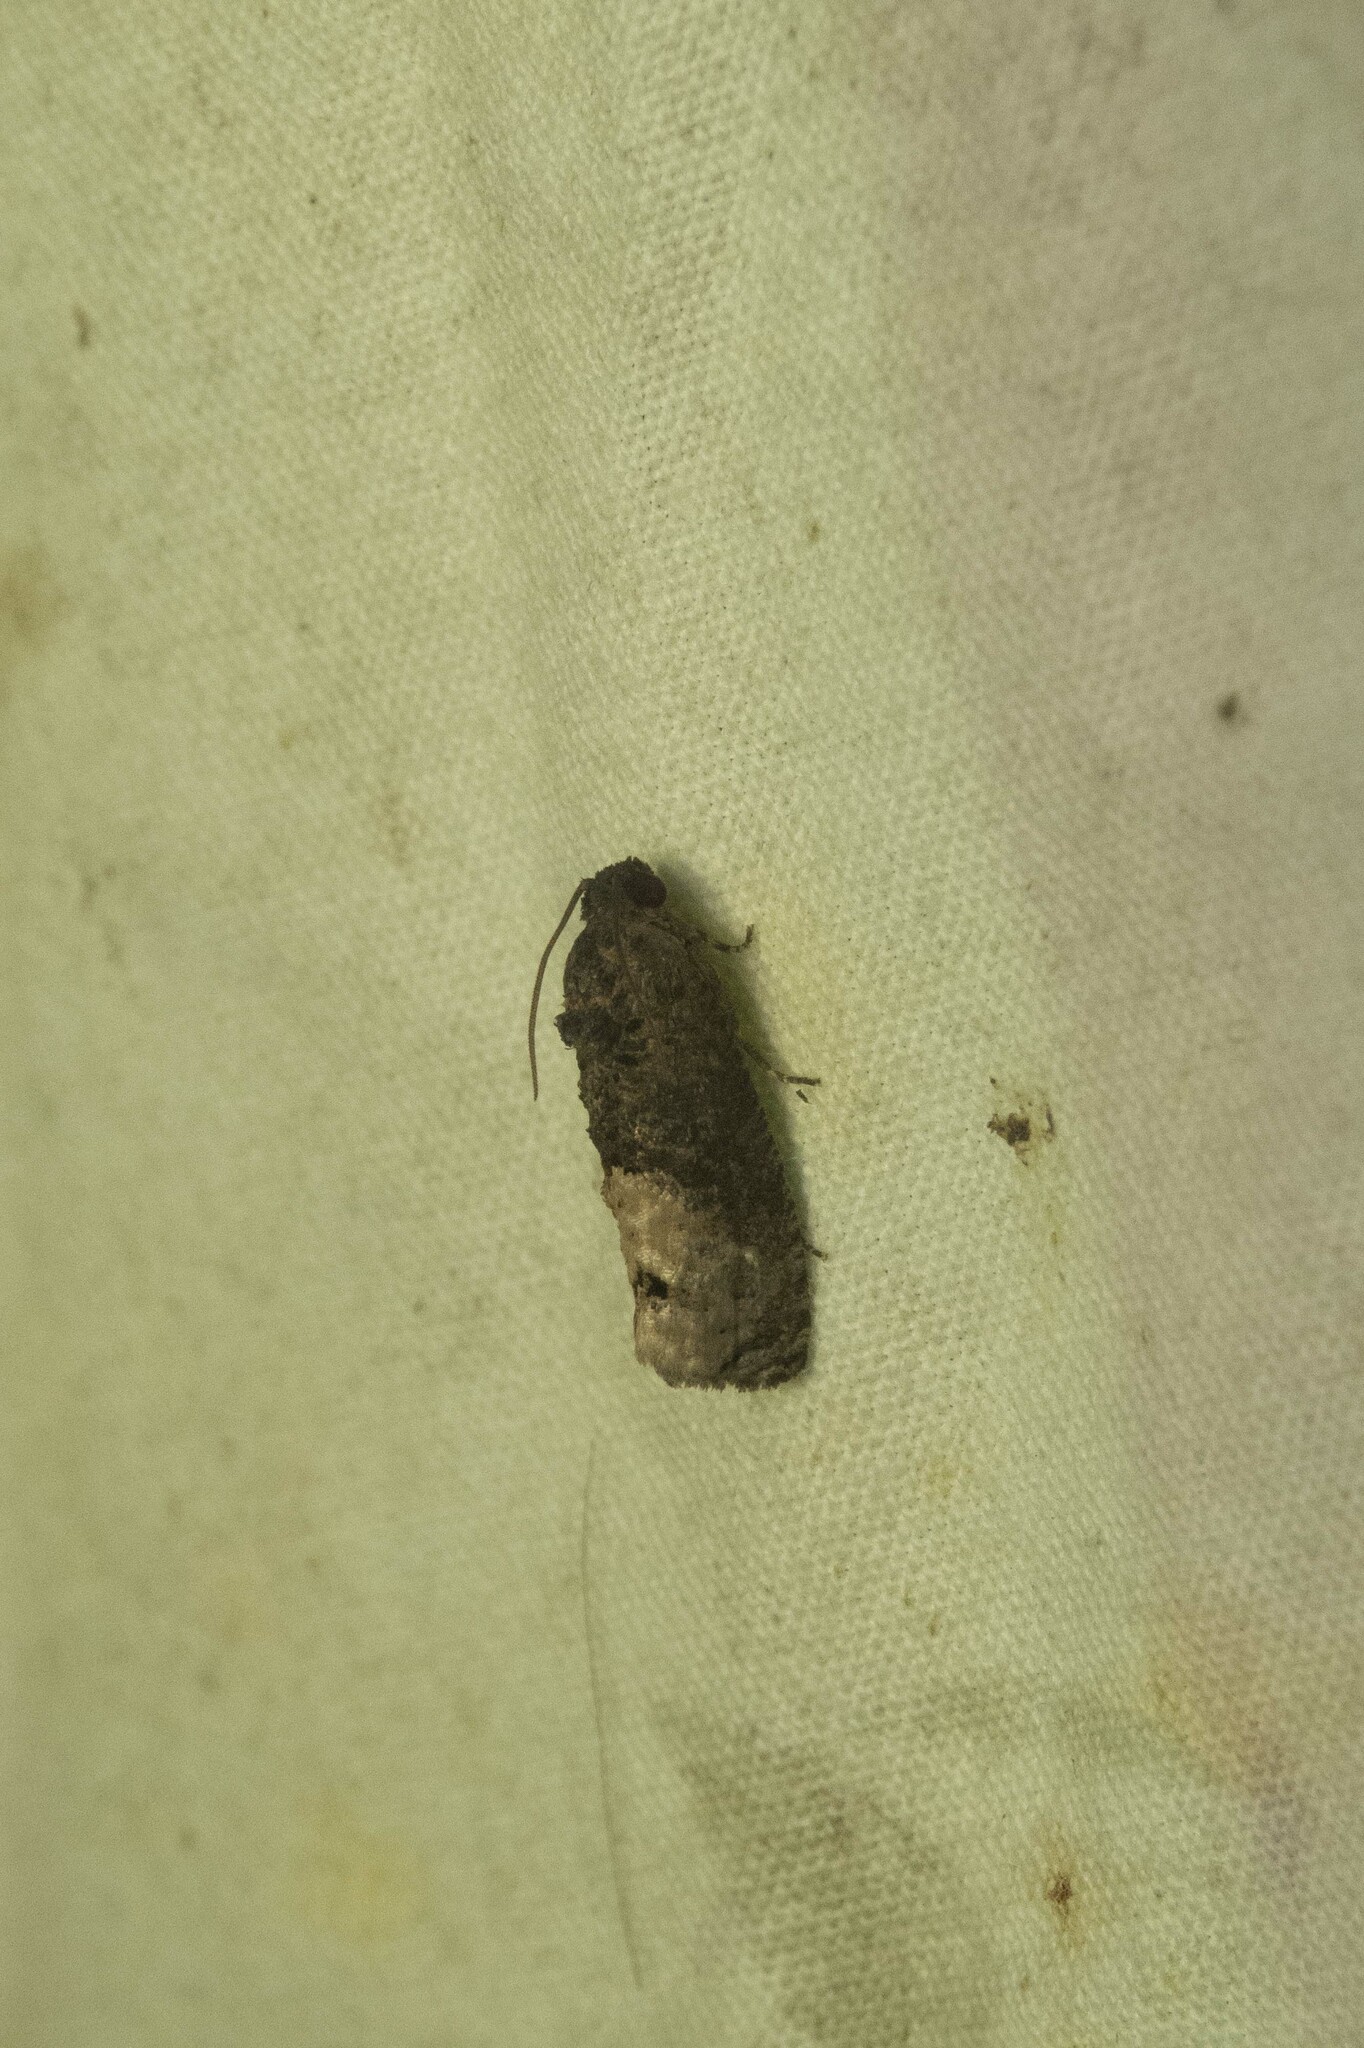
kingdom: Animalia
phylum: Arthropoda
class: Insecta
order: Lepidoptera
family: Tortricidae
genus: Ecdytolopha
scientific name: Ecdytolopha insiticiana
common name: Locust twig borer moth
